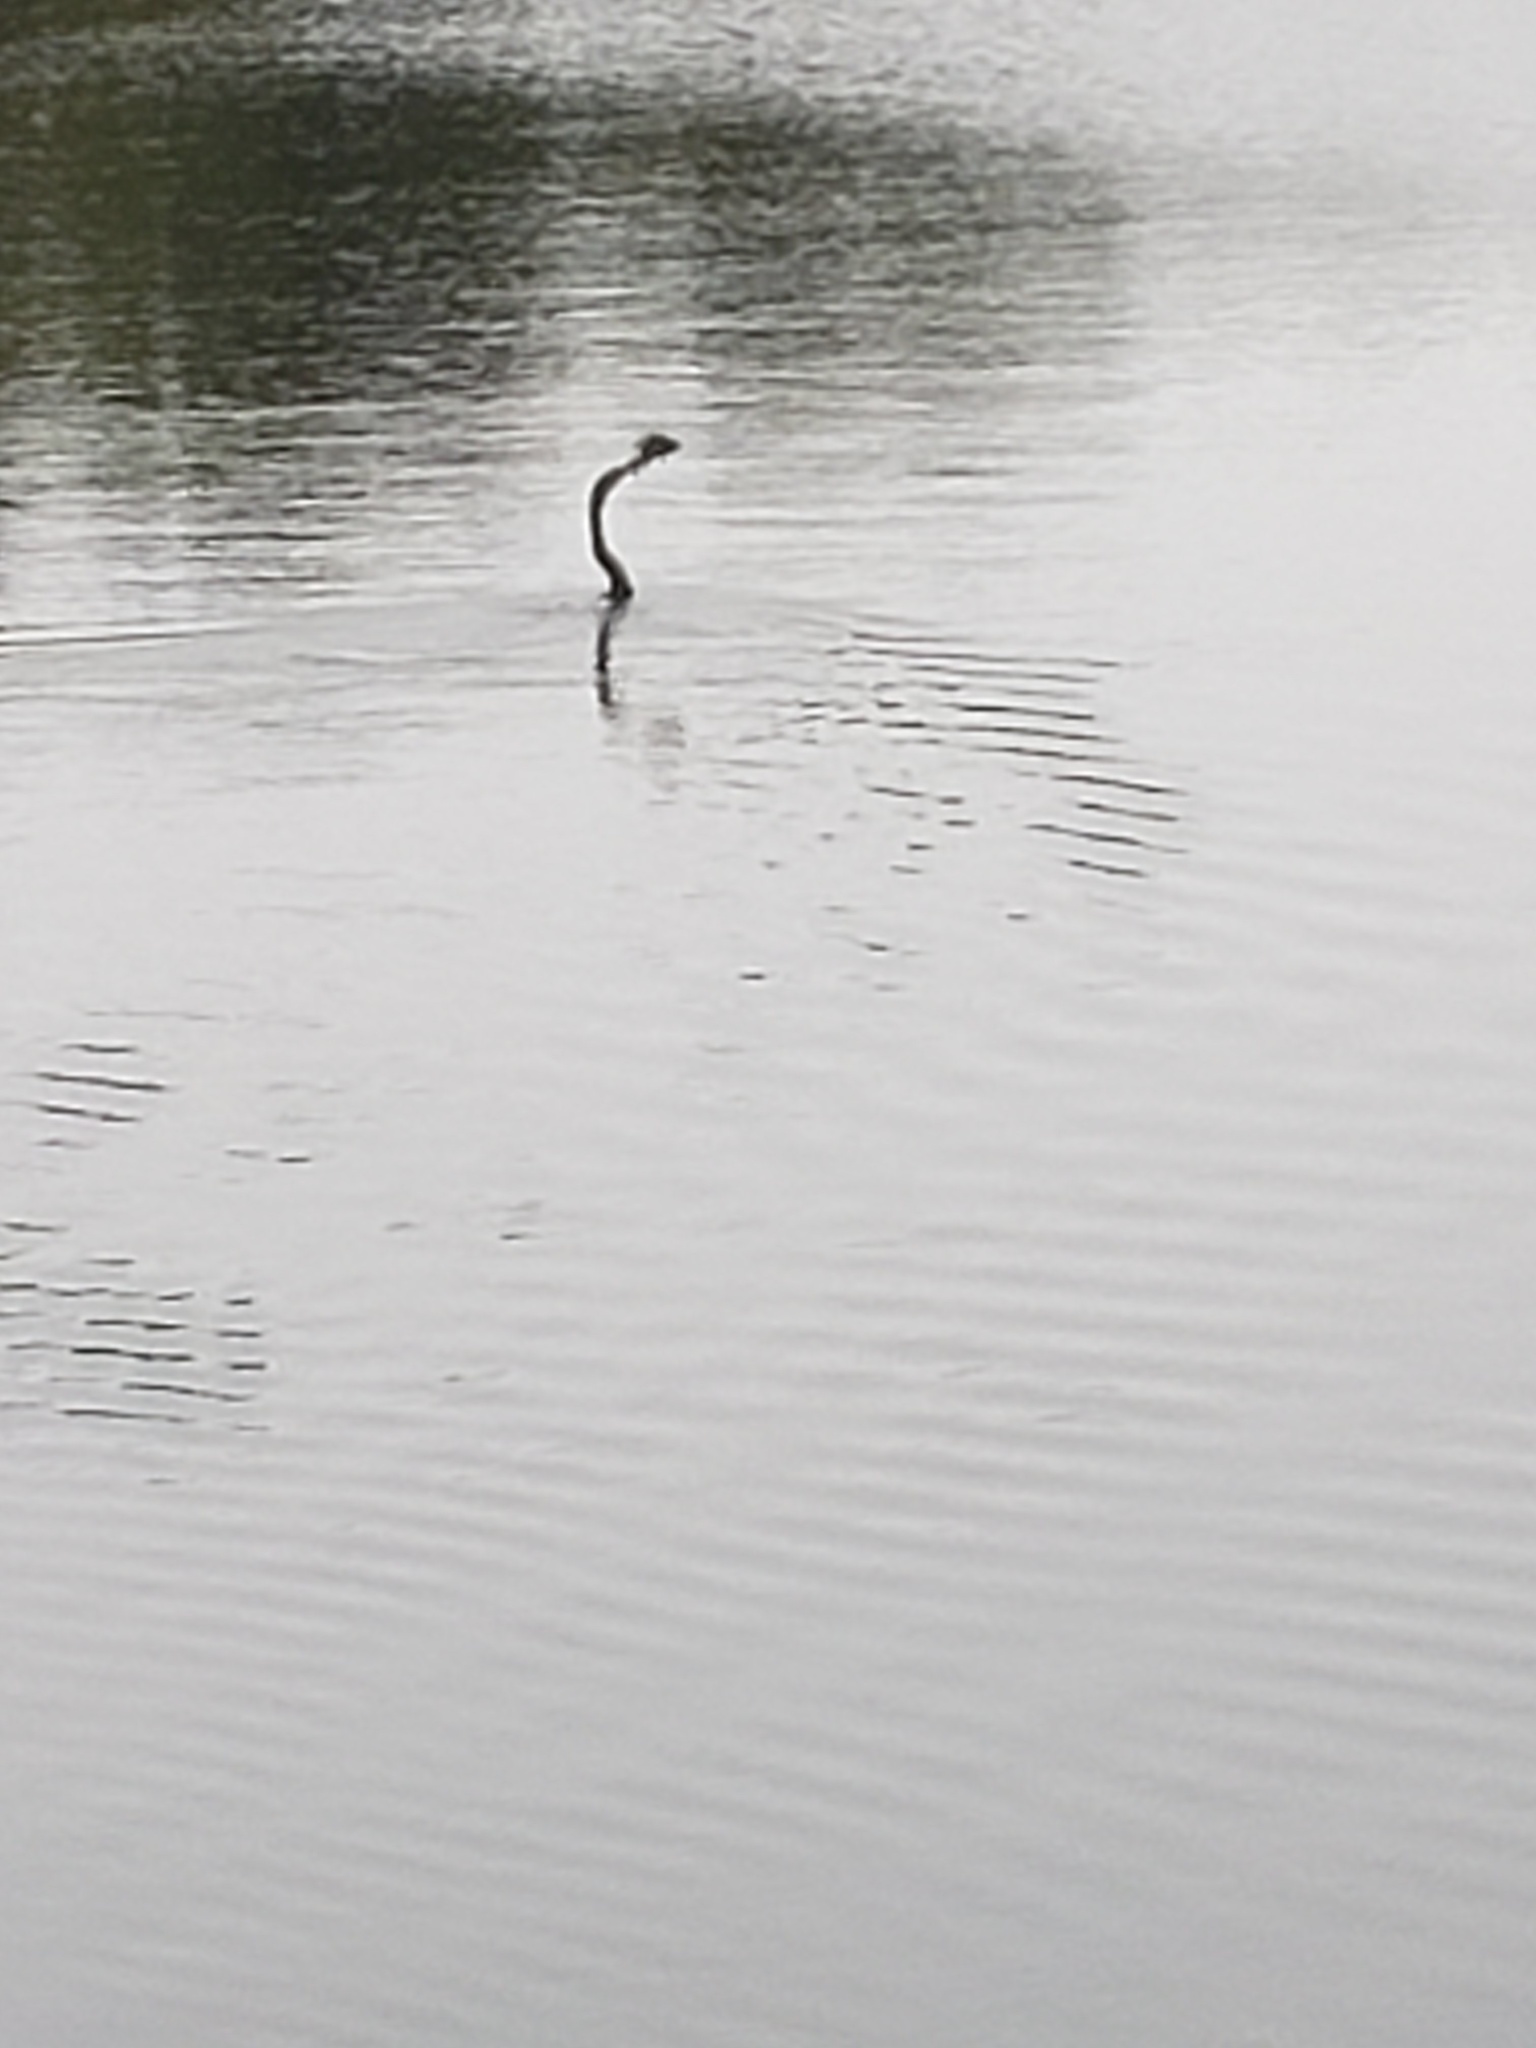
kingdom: Animalia
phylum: Chordata
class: Aves
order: Suliformes
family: Anhingidae
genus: Anhinga
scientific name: Anhinga anhinga
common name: Anhinga
